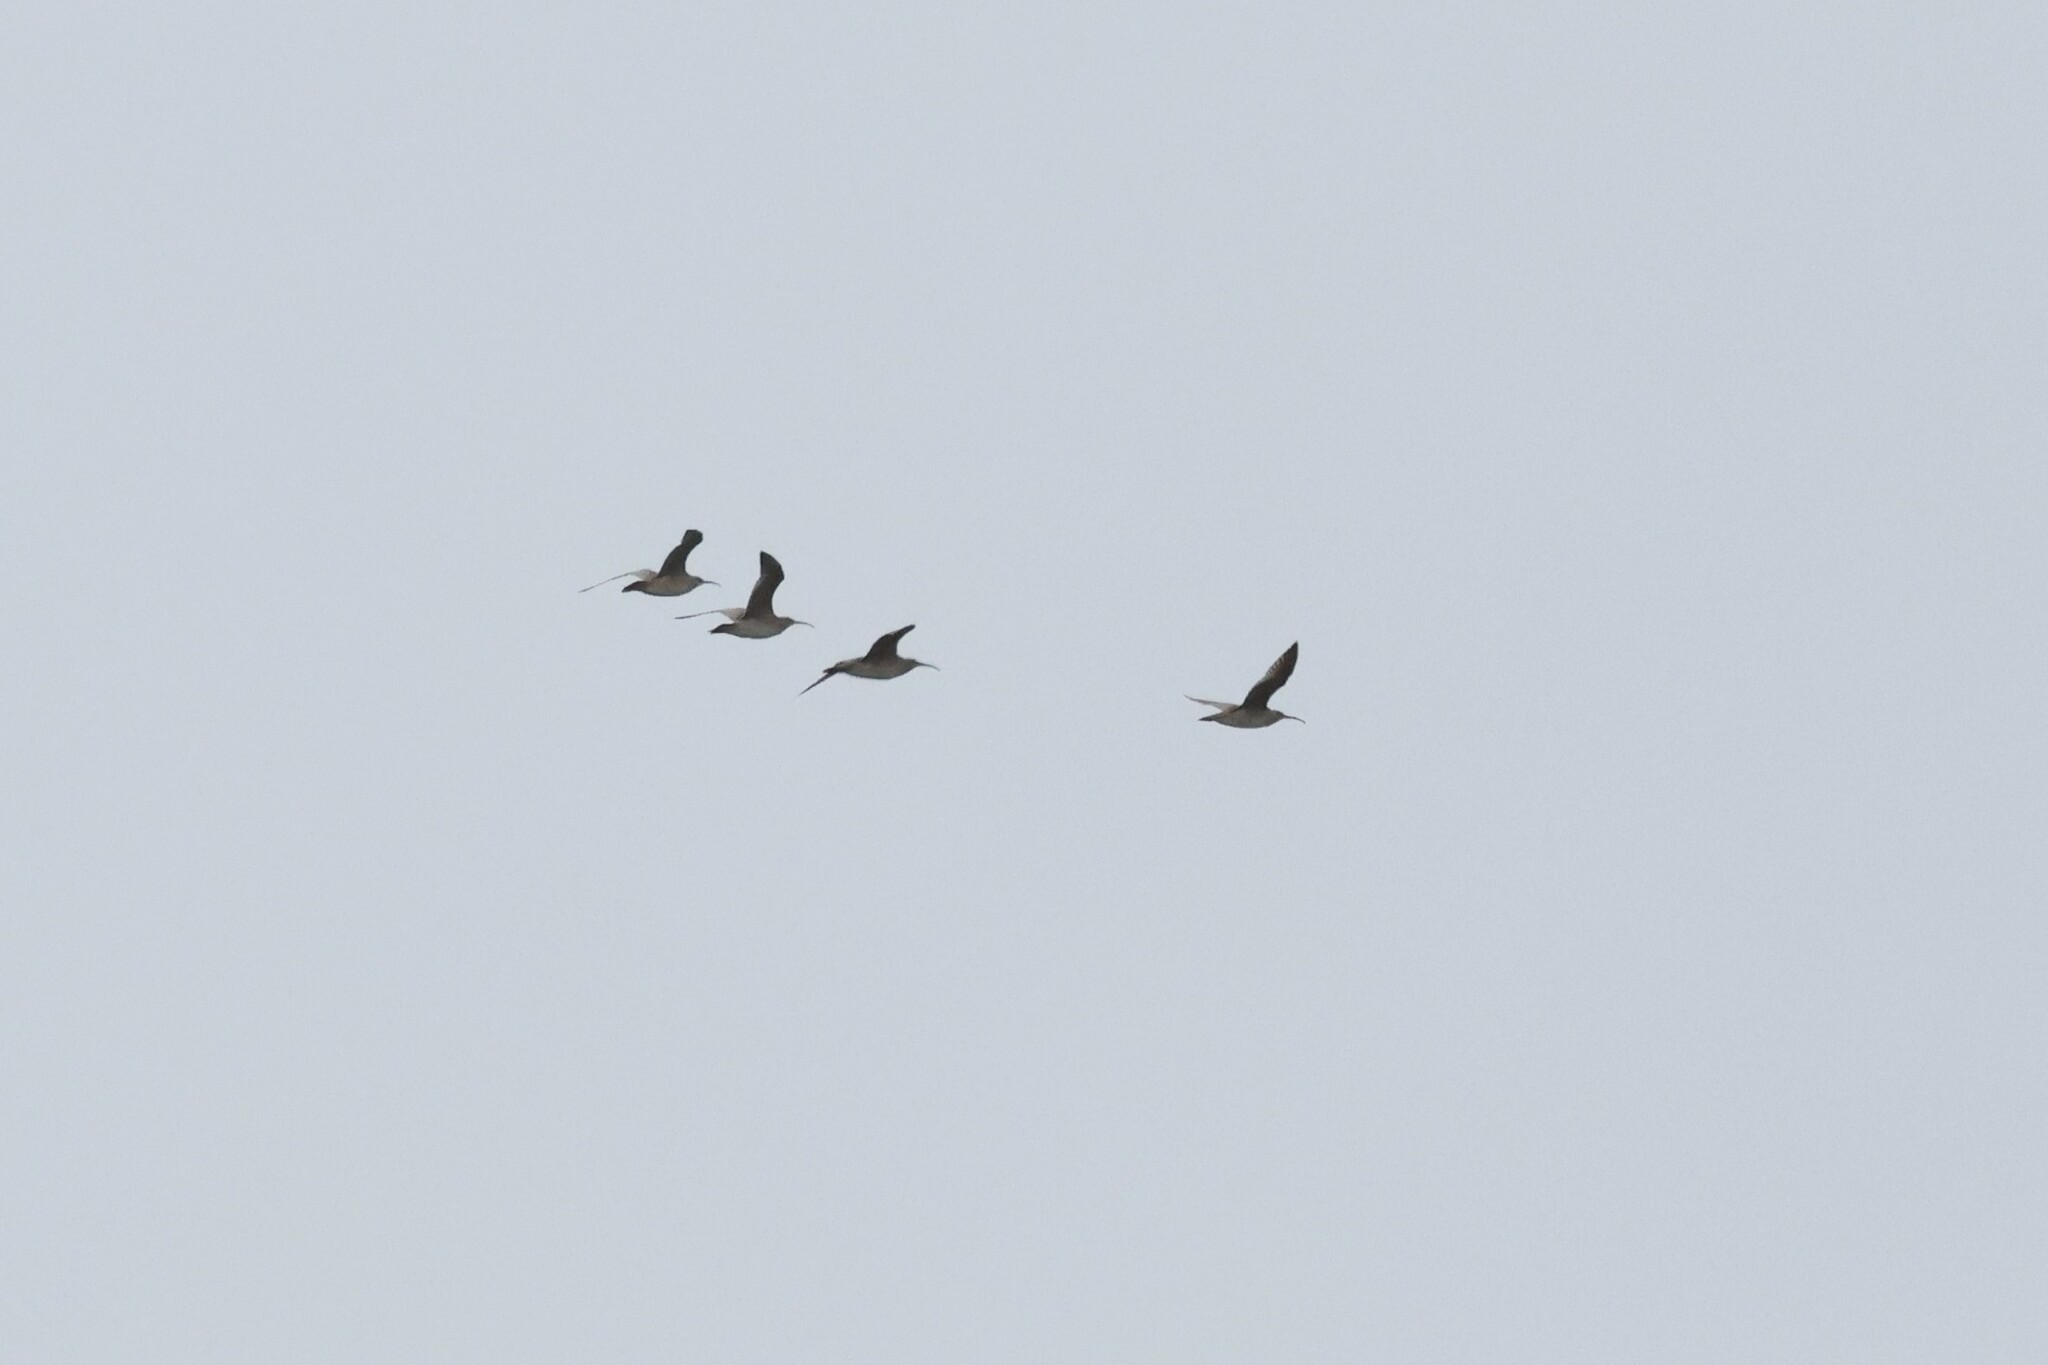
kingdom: Animalia
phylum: Chordata
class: Aves
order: Charadriiformes
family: Scolopacidae
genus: Numenius
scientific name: Numenius phaeopus
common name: Whimbrel
